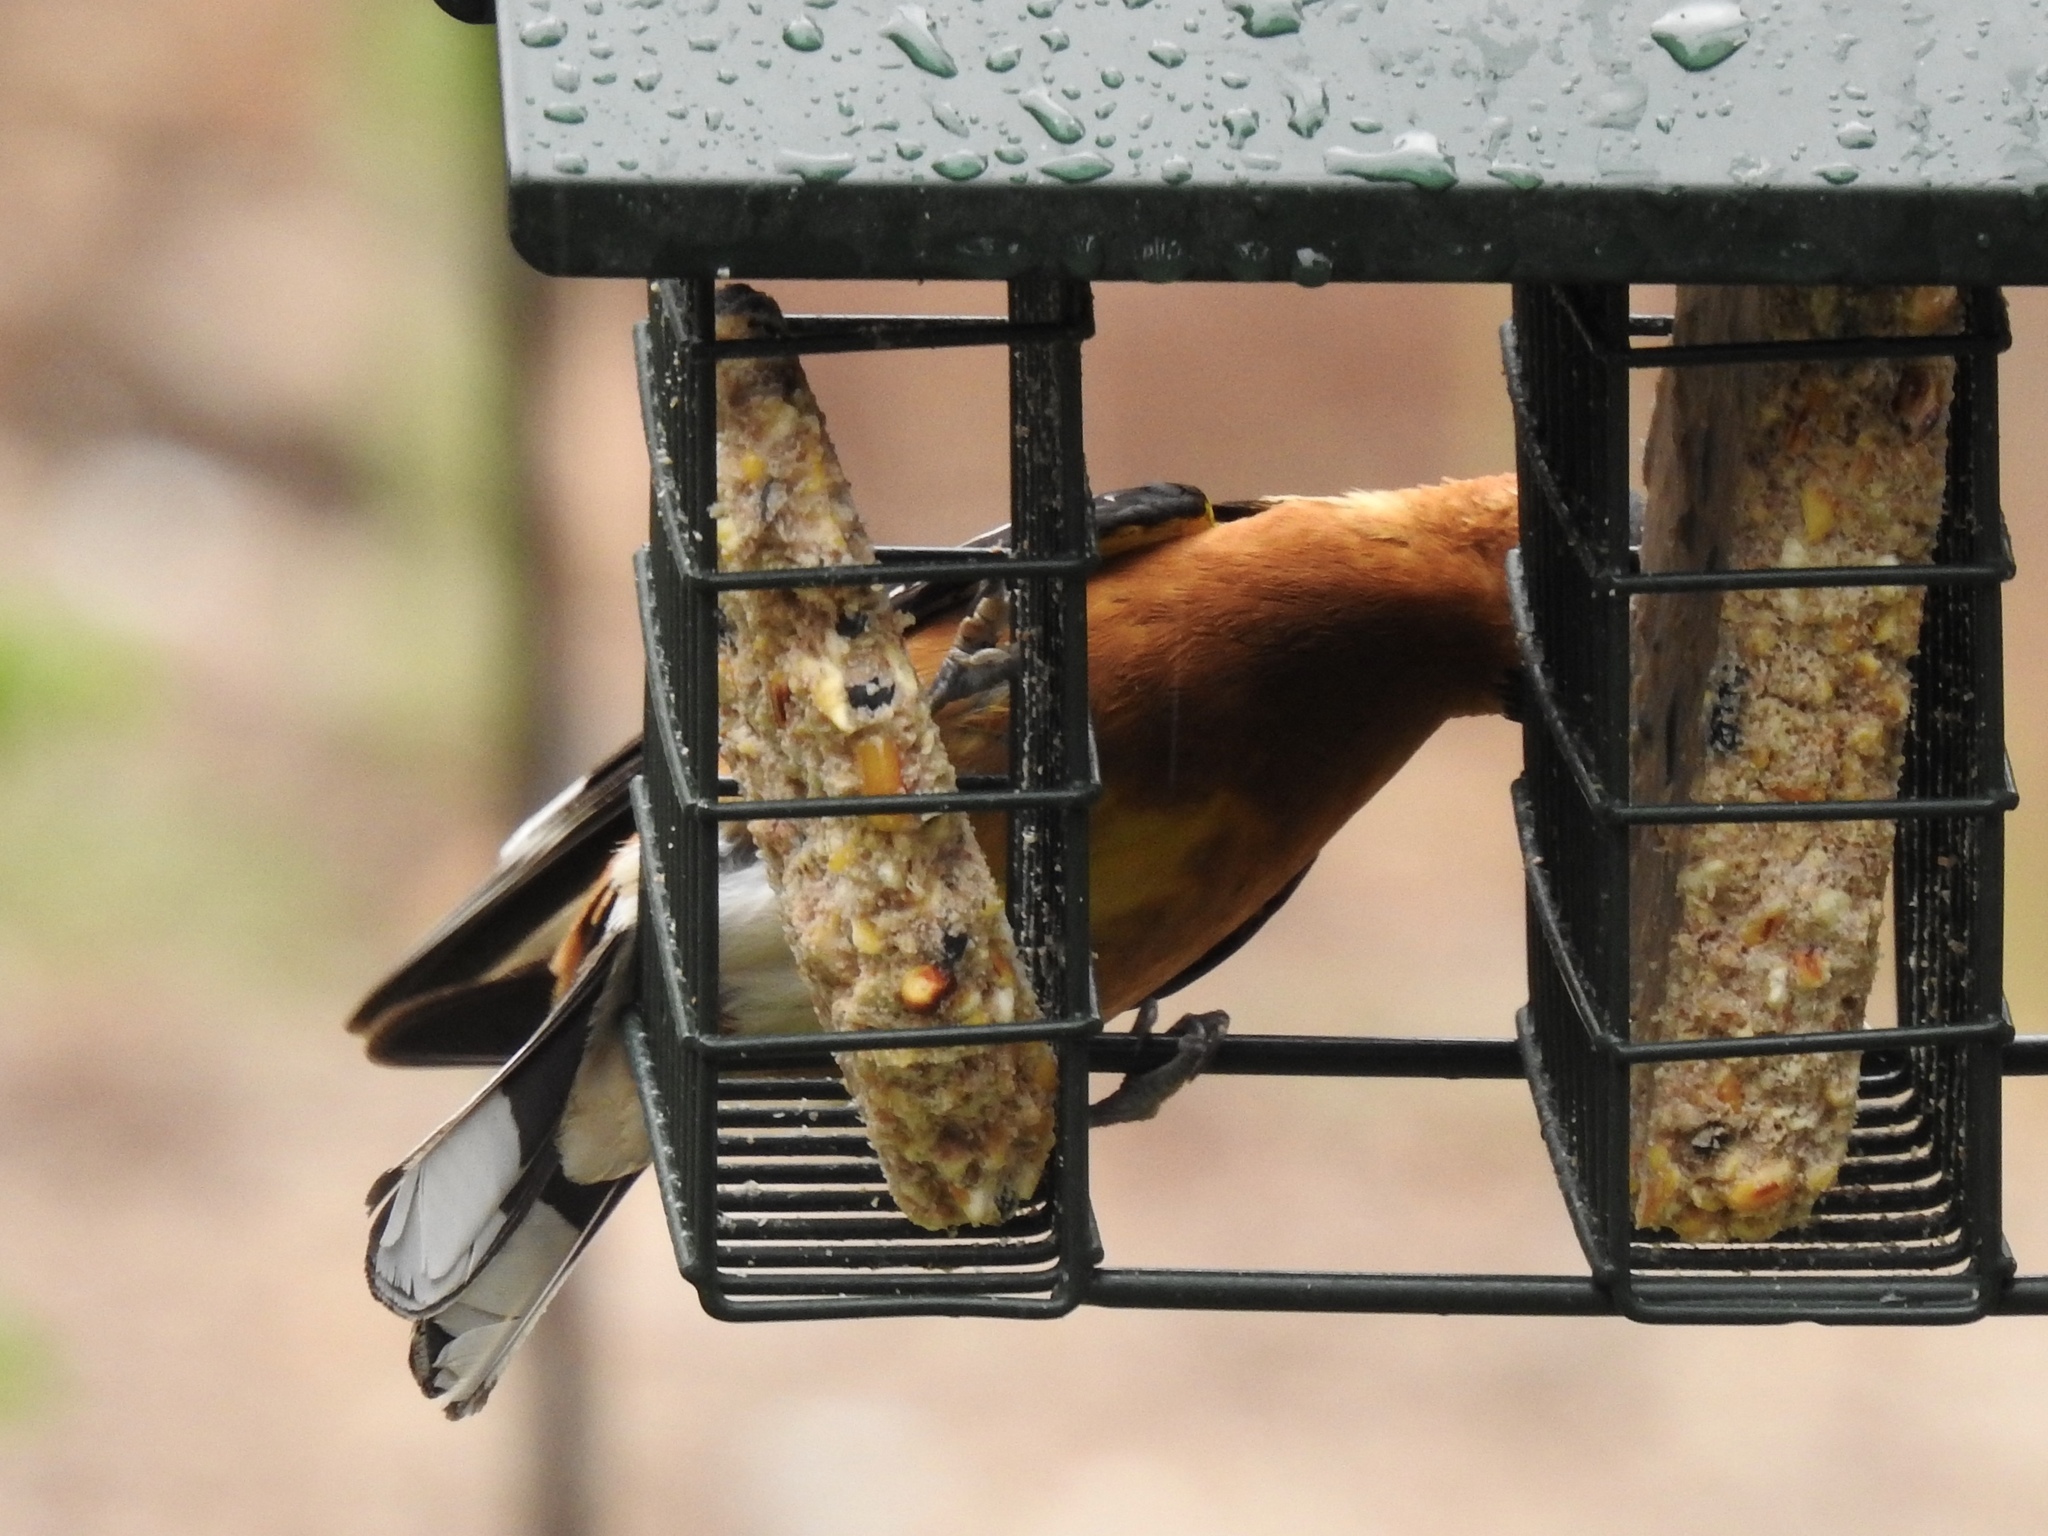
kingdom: Animalia
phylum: Chordata
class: Aves
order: Passeriformes
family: Cardinalidae
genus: Pheucticus
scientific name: Pheucticus melanocephalus
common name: Black-headed grosbeak
